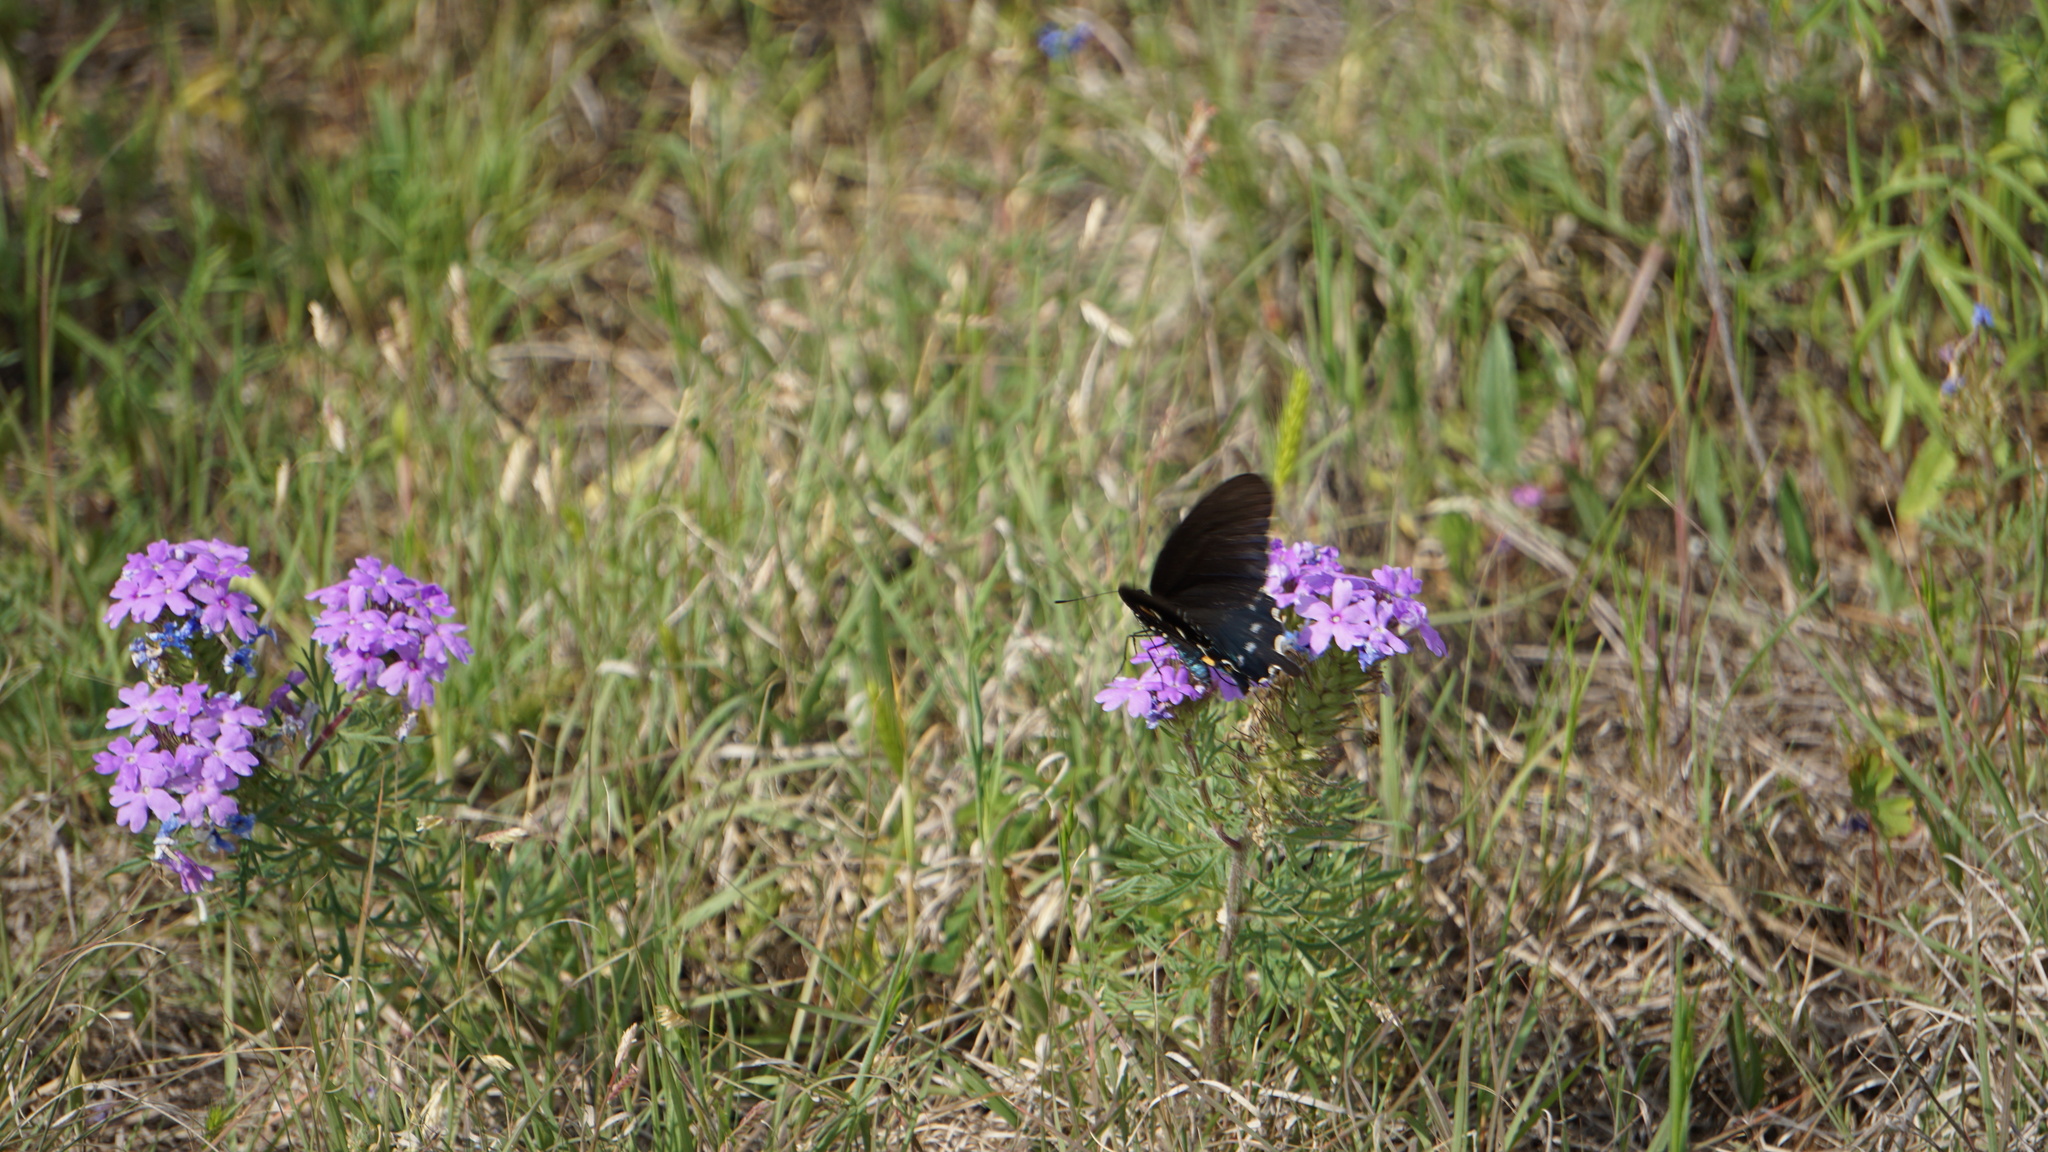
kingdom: Animalia
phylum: Arthropoda
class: Insecta
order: Lepidoptera
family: Papilionidae
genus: Battus
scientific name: Battus philenor
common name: Pipevine swallowtail
